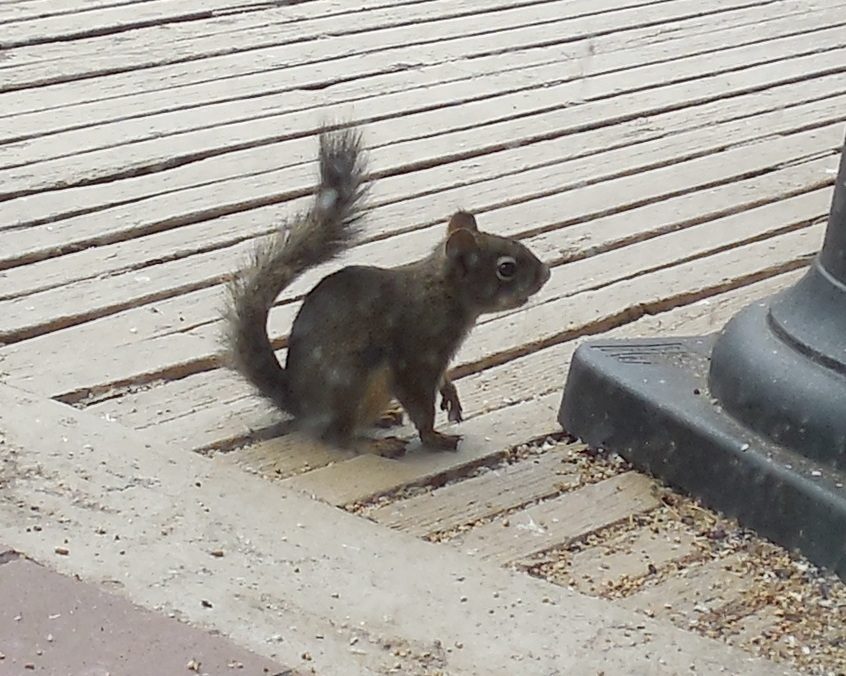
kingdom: Animalia
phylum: Chordata
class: Mammalia
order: Rodentia
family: Sciuridae
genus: Tamiasciurus
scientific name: Tamiasciurus hudsonicus
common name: Red squirrel
